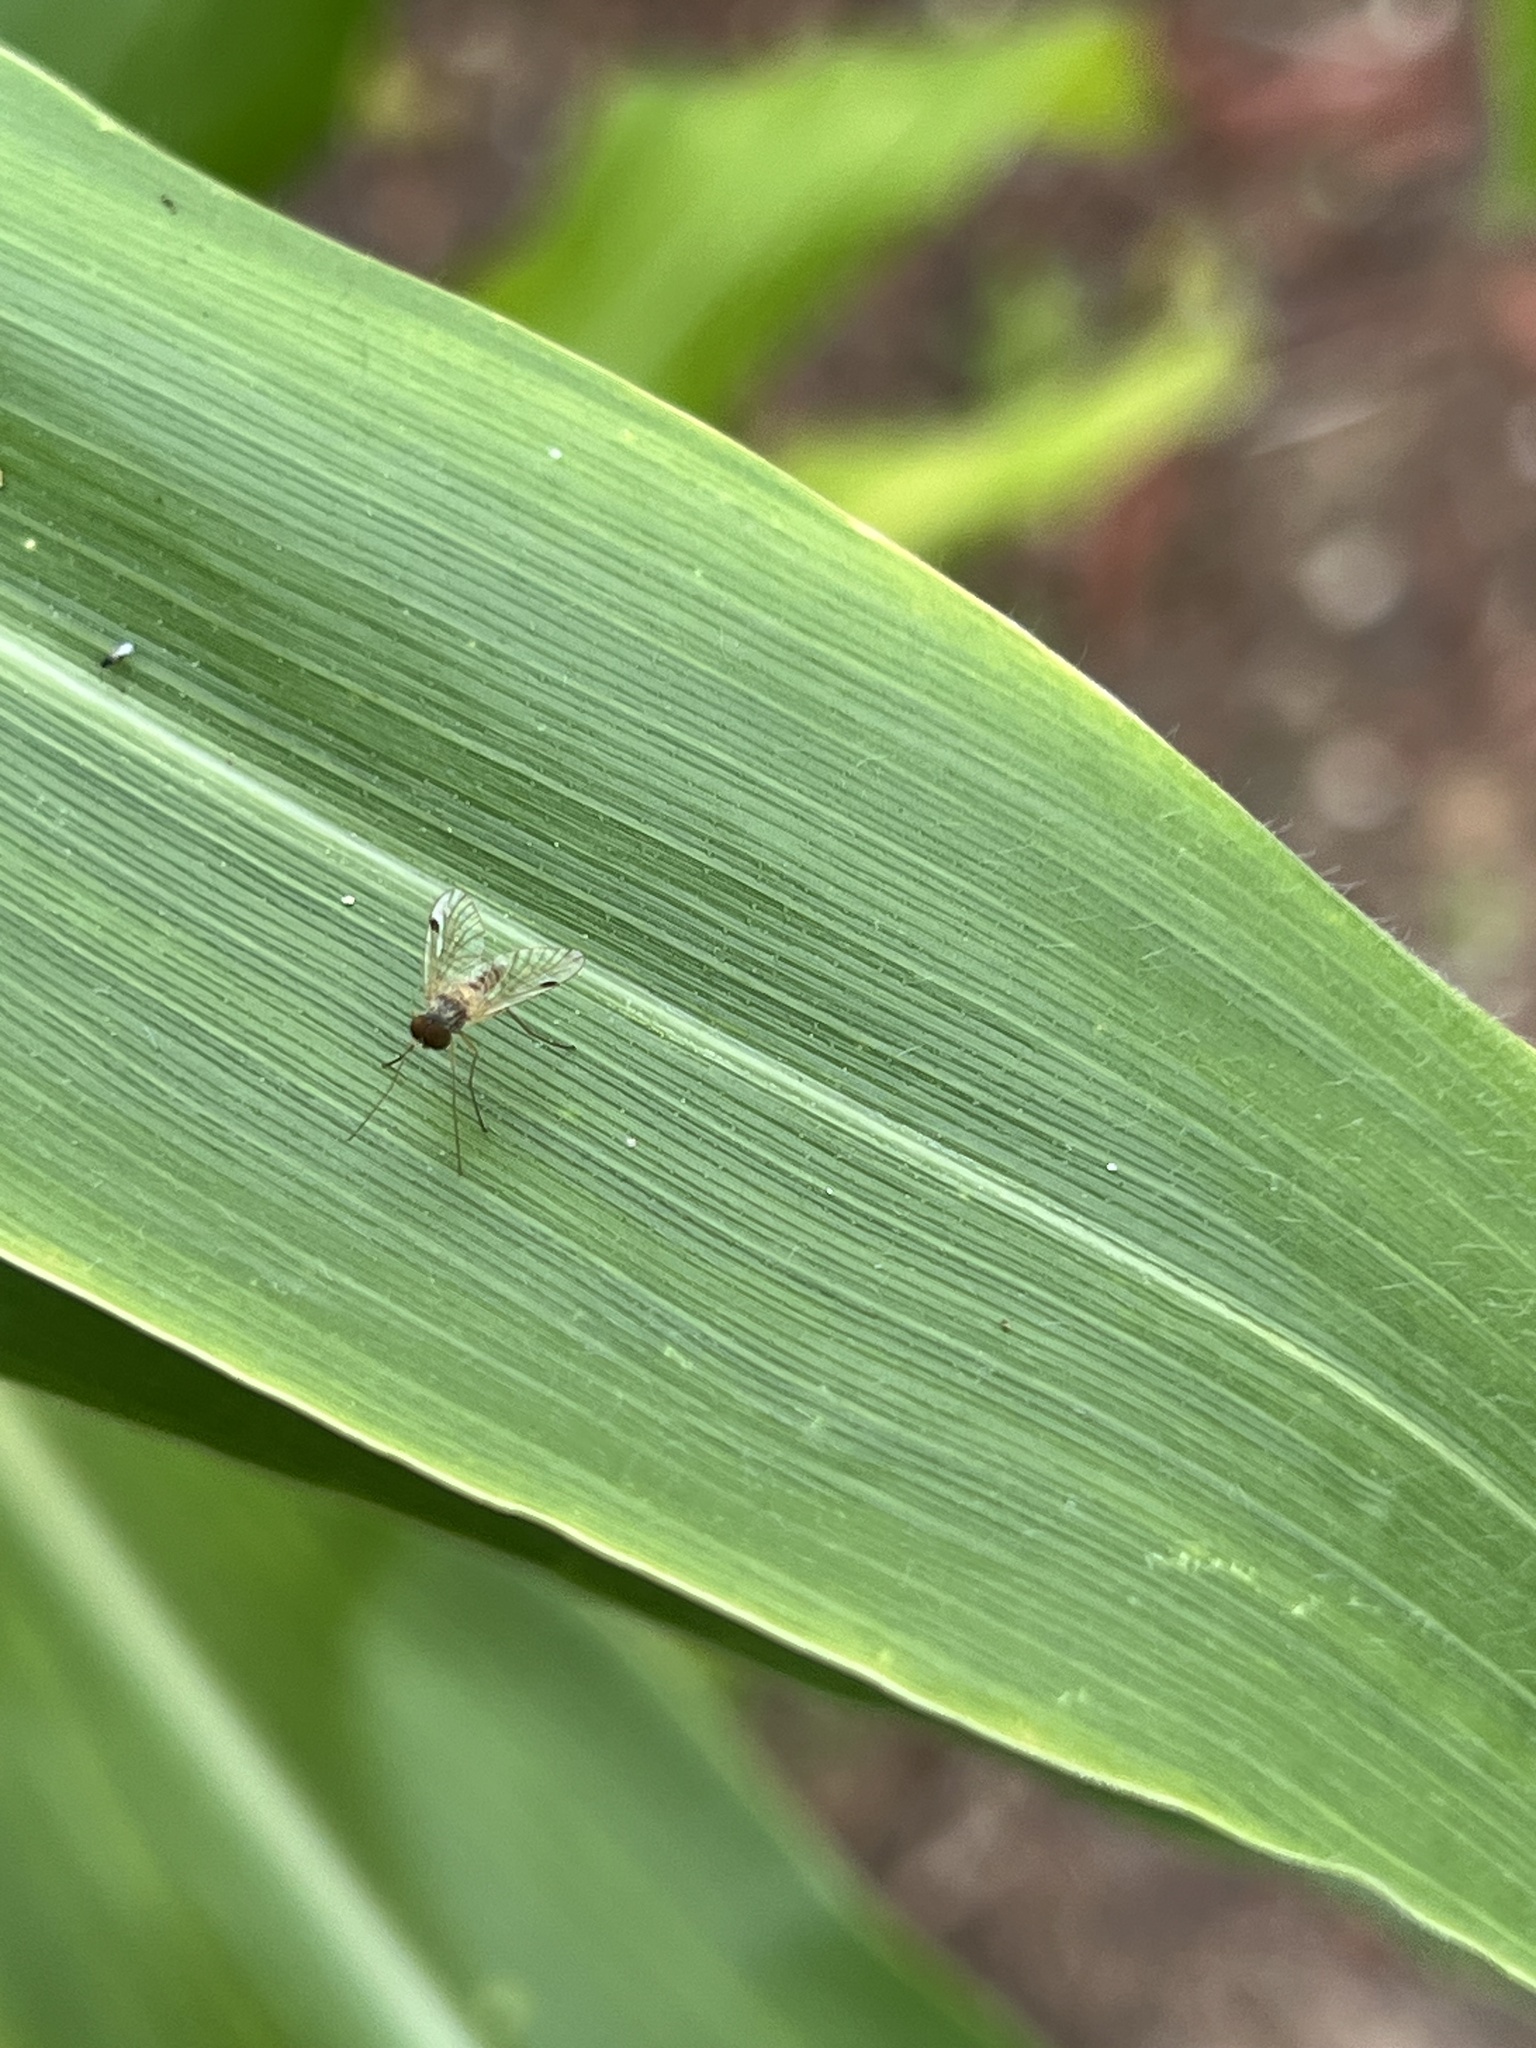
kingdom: Animalia
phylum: Arthropoda
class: Insecta
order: Diptera
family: Rhagionidae
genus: Chrysopilus
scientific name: Chrysopilus modestus
